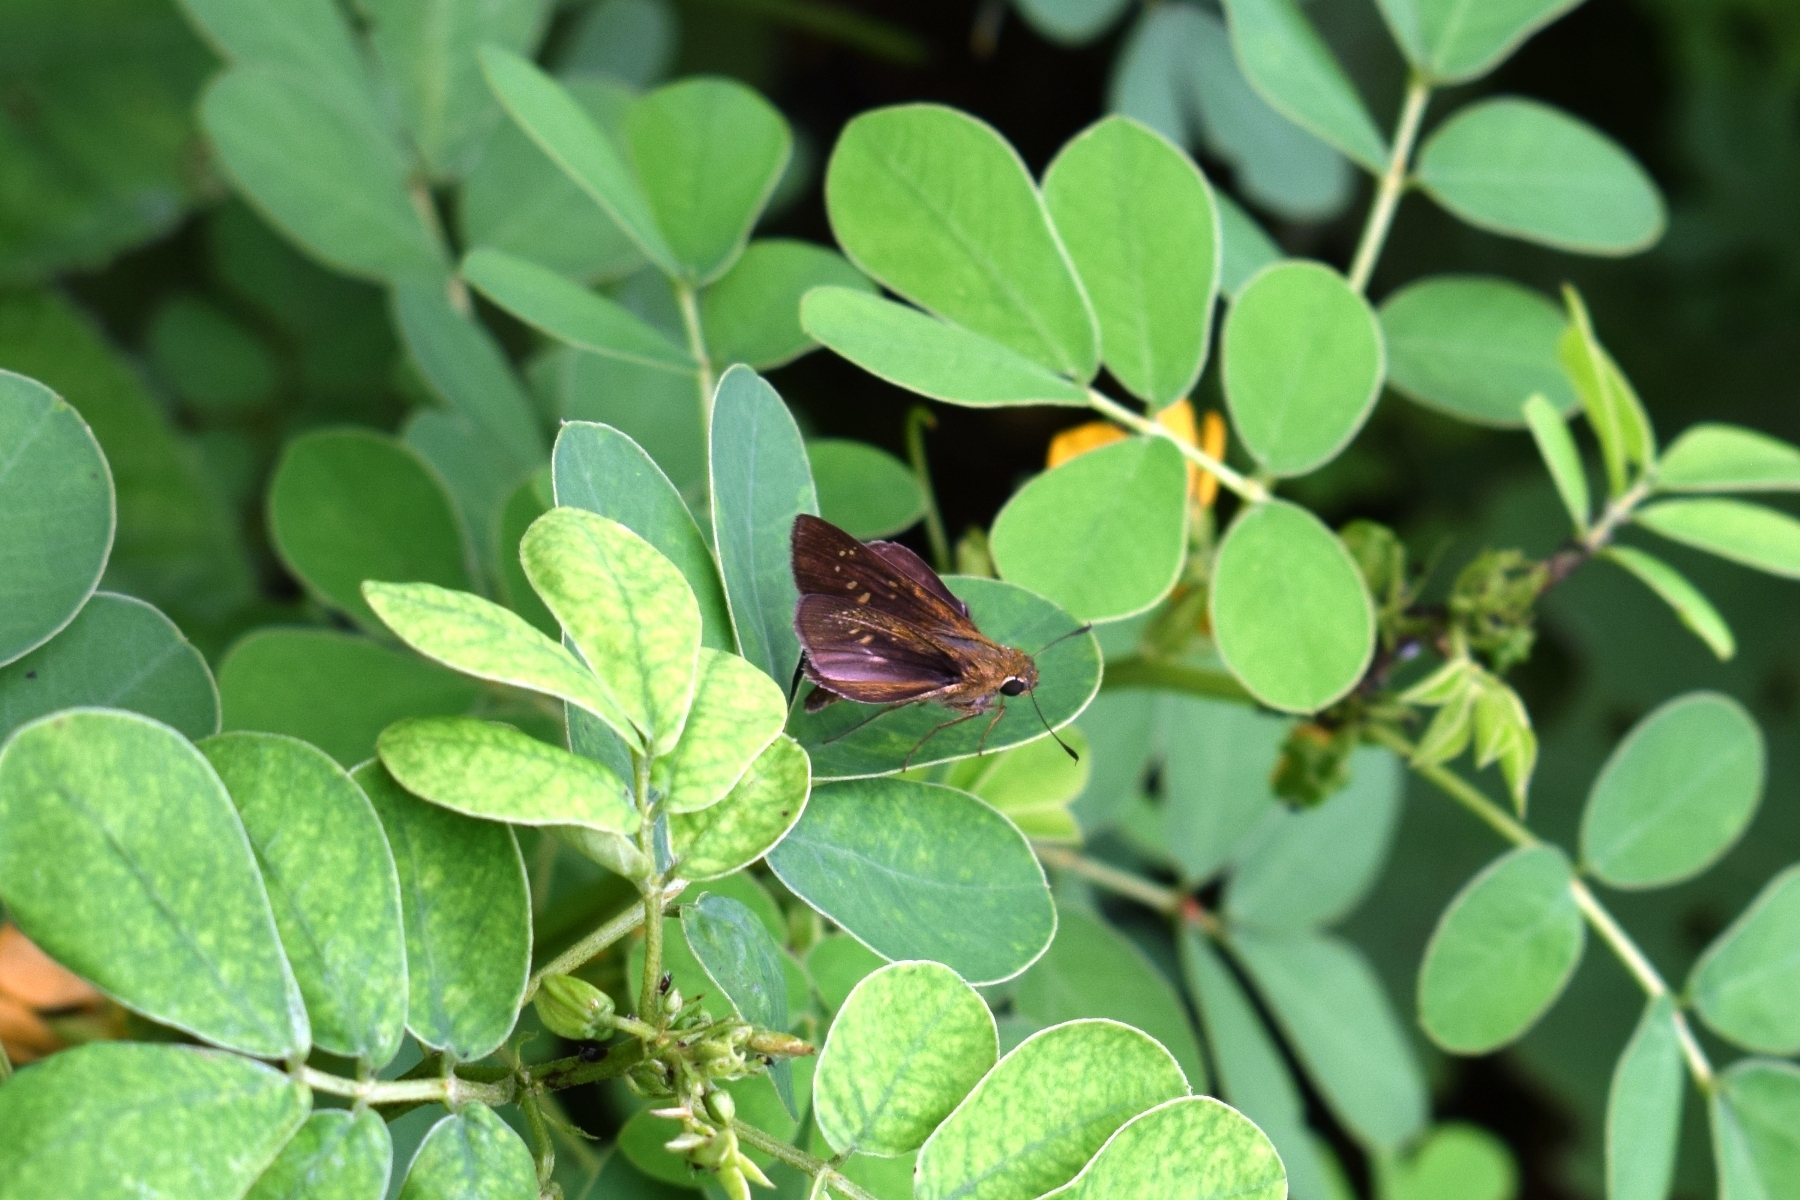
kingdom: Animalia
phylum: Arthropoda
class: Insecta
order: Lepidoptera
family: Hesperiidae
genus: Pelopidas
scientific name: Pelopidas agna
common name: Little branded swift
